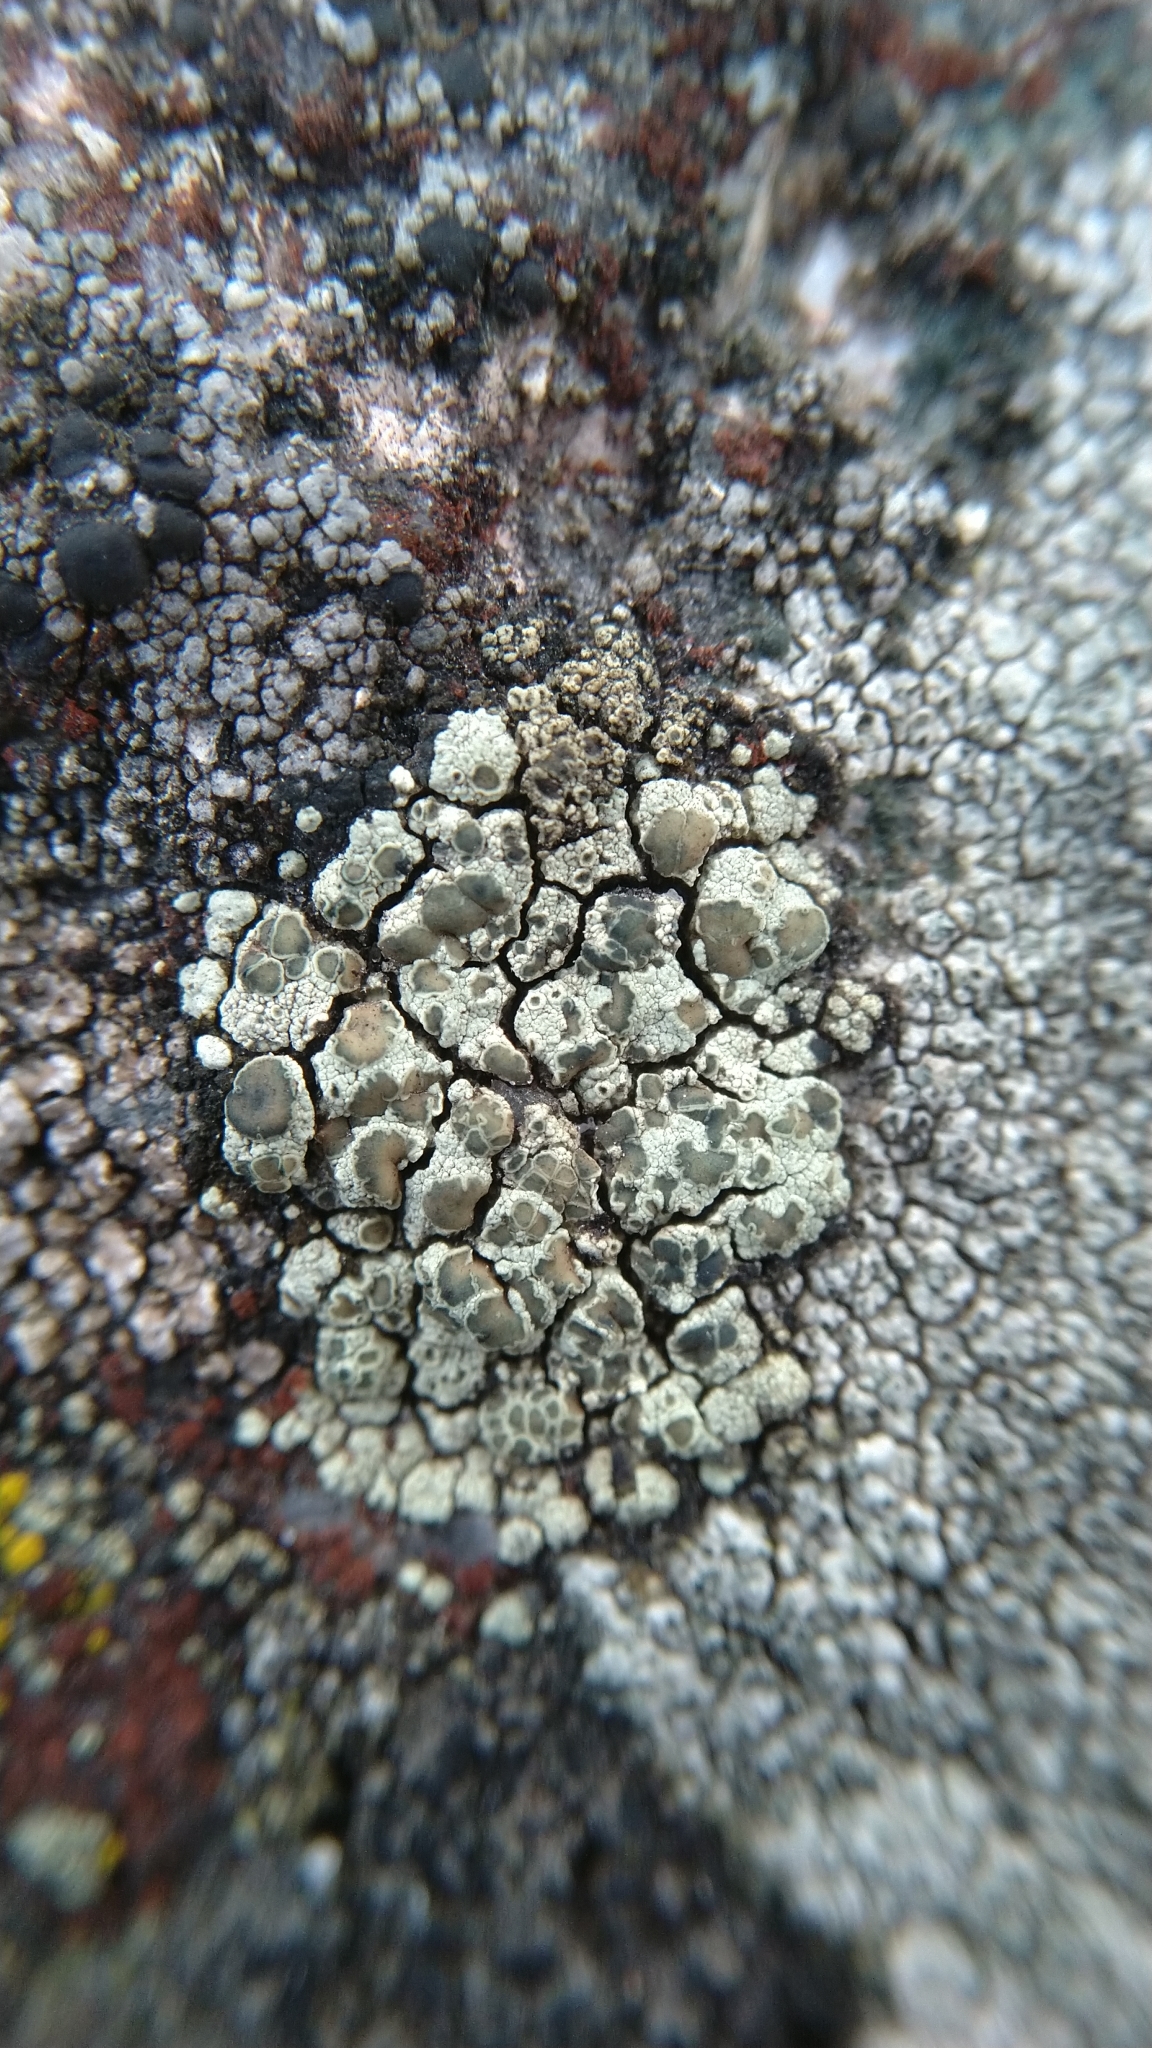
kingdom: Fungi
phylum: Ascomycota
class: Lecanoromycetes
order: Lecanorales
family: Lecanoraceae
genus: Lecanora
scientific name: Lecanora intricata
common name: Intricate rim-lichen
